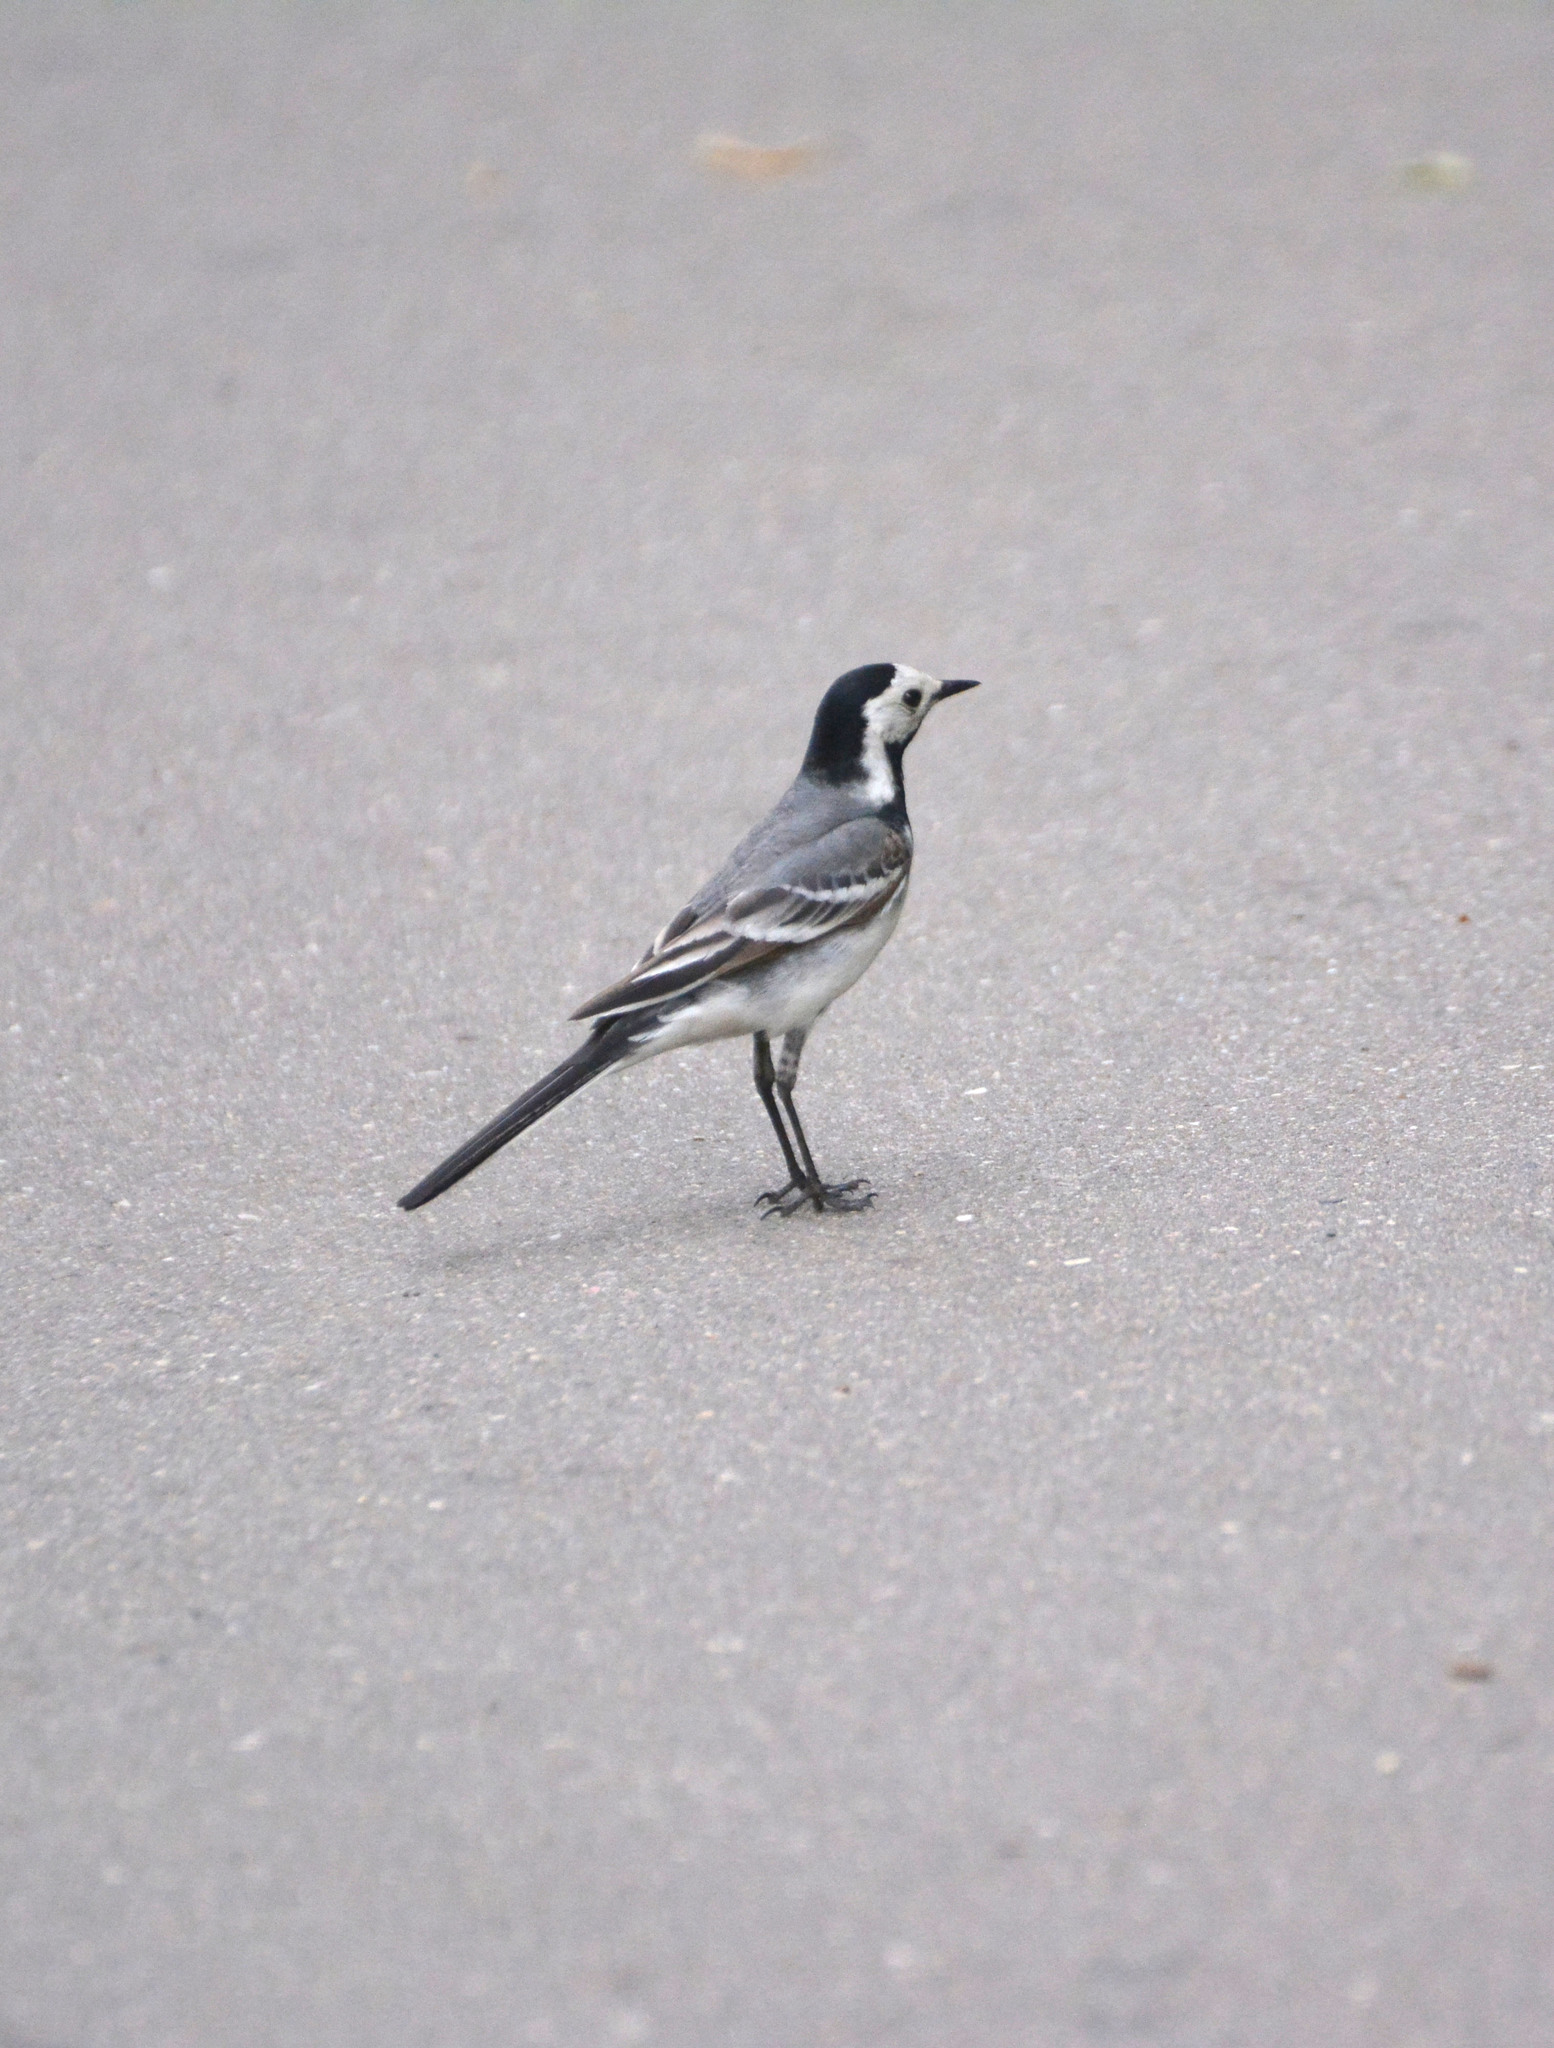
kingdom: Animalia
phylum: Chordata
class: Aves
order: Passeriformes
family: Motacillidae
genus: Motacilla
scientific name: Motacilla alba
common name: White wagtail
